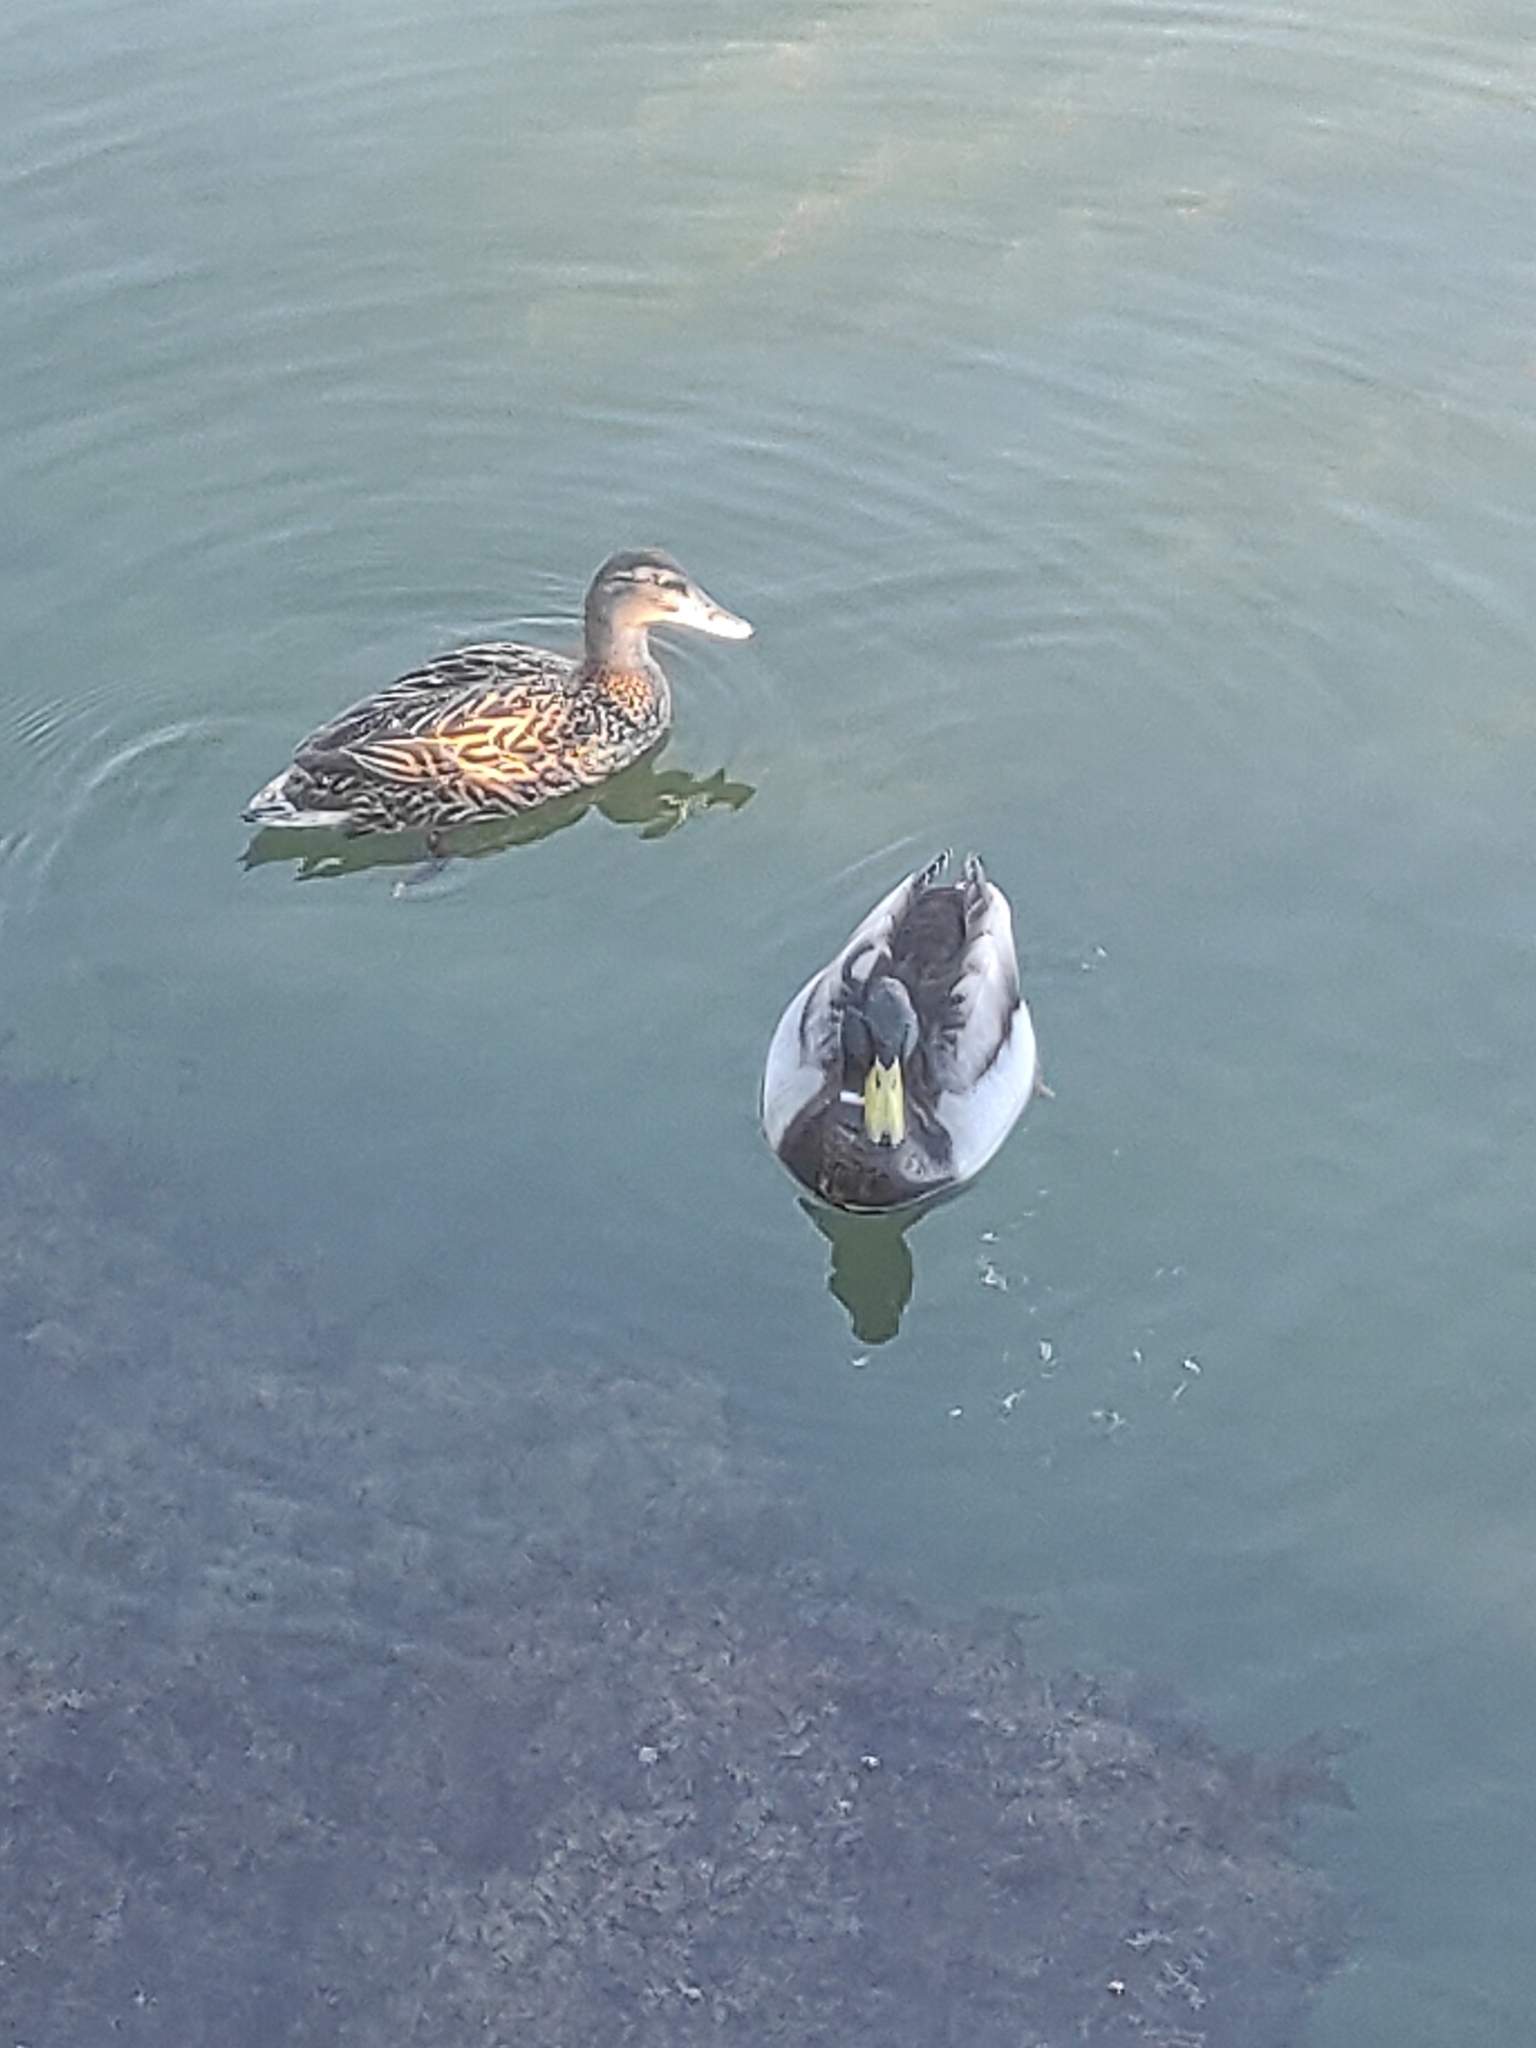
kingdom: Animalia
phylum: Chordata
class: Aves
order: Anseriformes
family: Anatidae
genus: Anas
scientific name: Anas platyrhynchos
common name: Mallard
